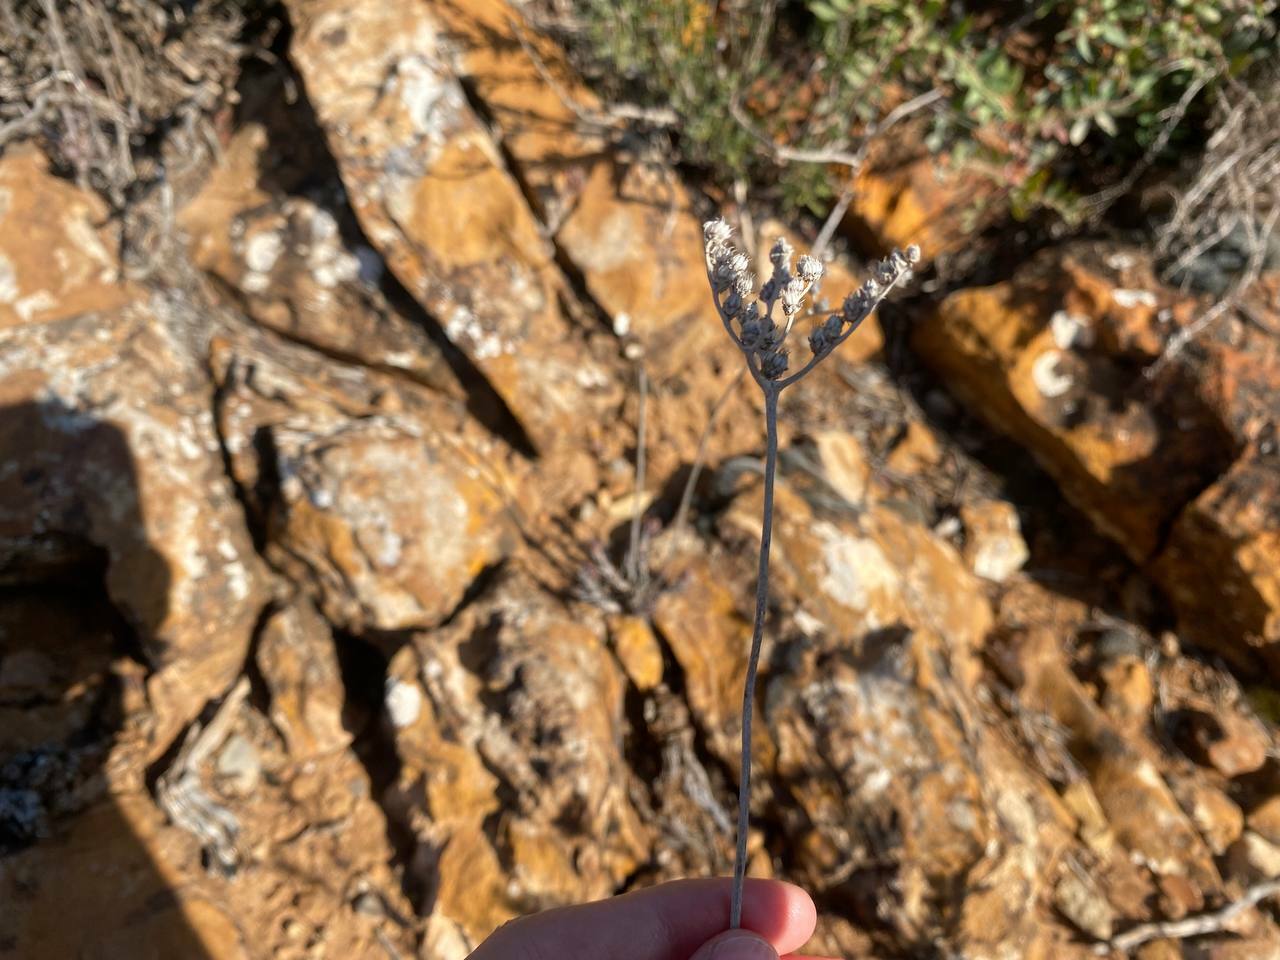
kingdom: Plantae
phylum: Tracheophyta
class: Magnoliopsida
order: Saxifragales
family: Crassulaceae
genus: Petrosedum
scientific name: Petrosedum sediforme
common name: Pale stonecrop
